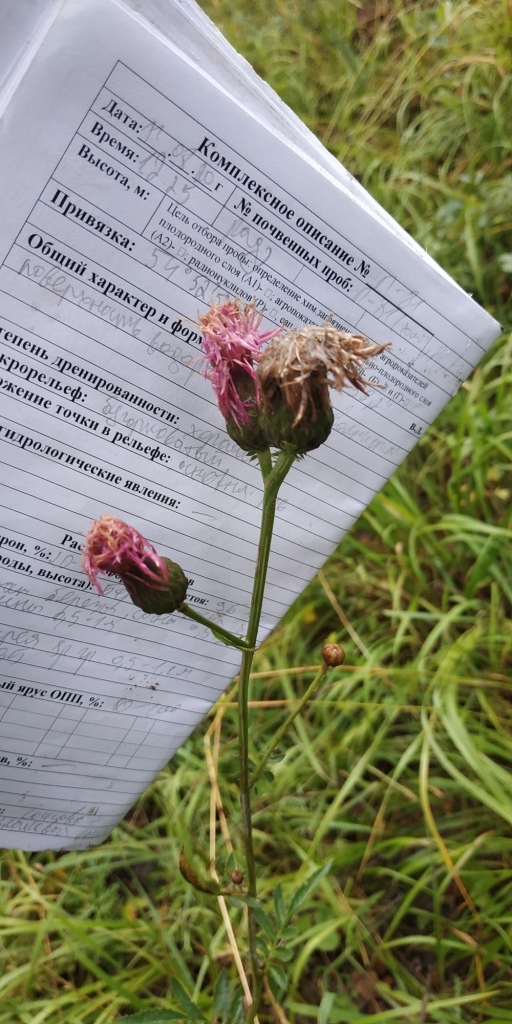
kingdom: Plantae
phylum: Tracheophyta
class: Magnoliopsida
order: Asterales
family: Asteraceae
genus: Serratula
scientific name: Serratula coronata
